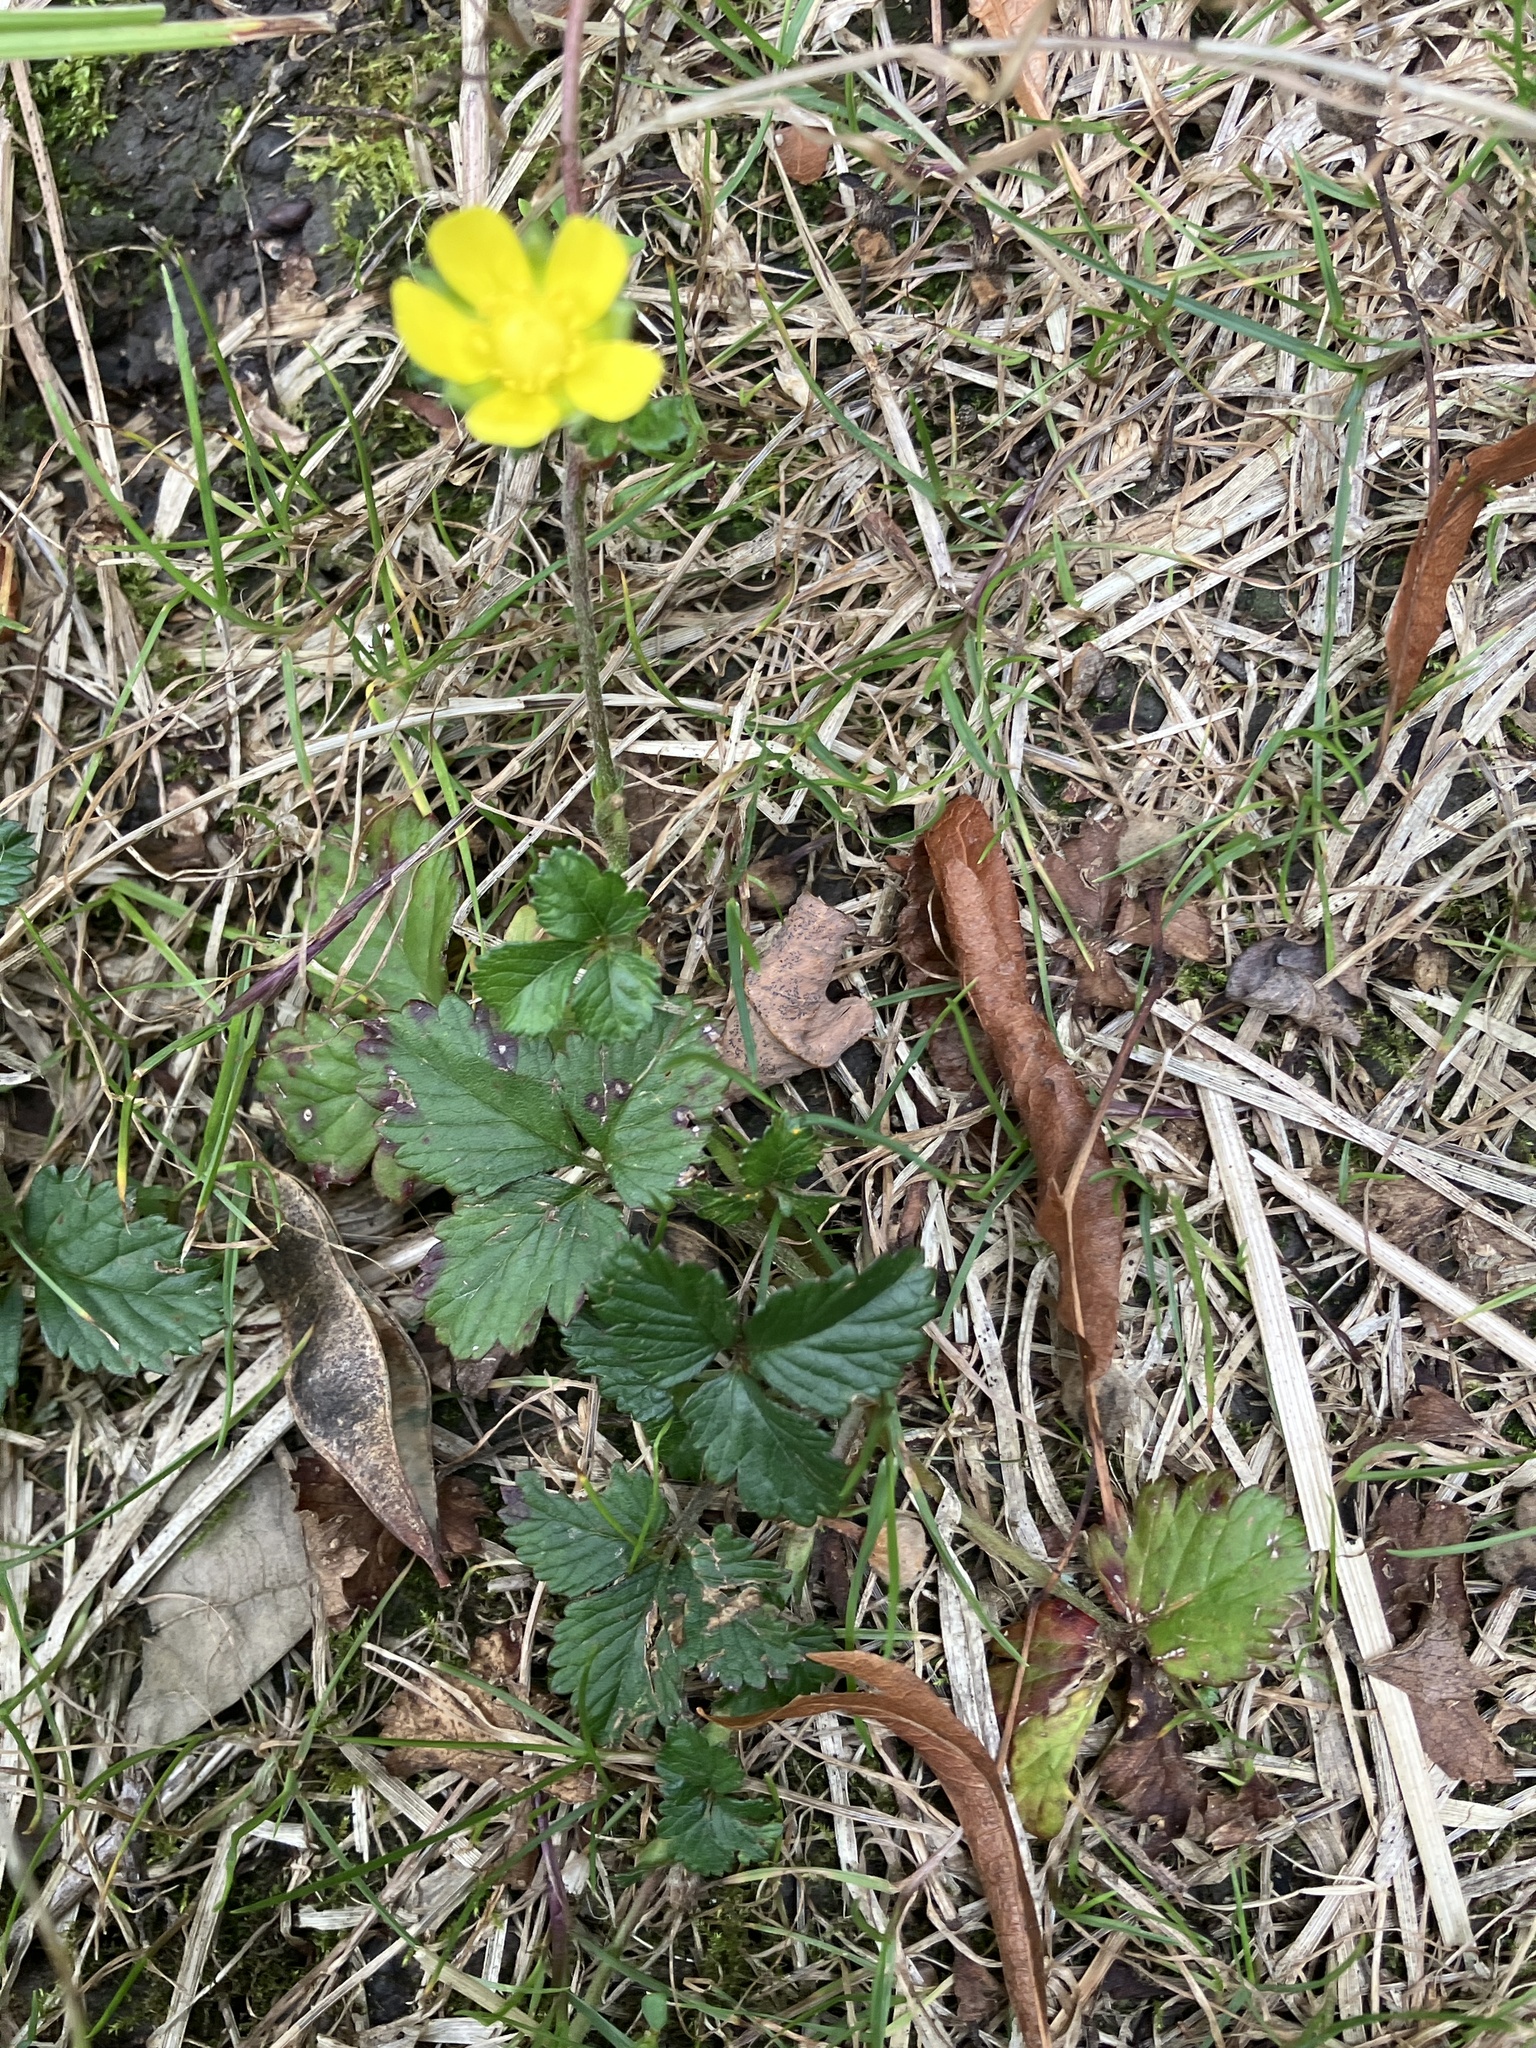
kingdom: Plantae
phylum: Tracheophyta
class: Magnoliopsida
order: Rosales
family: Rosaceae
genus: Potentilla
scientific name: Potentilla indica
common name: Yellow-flowered strawberry
